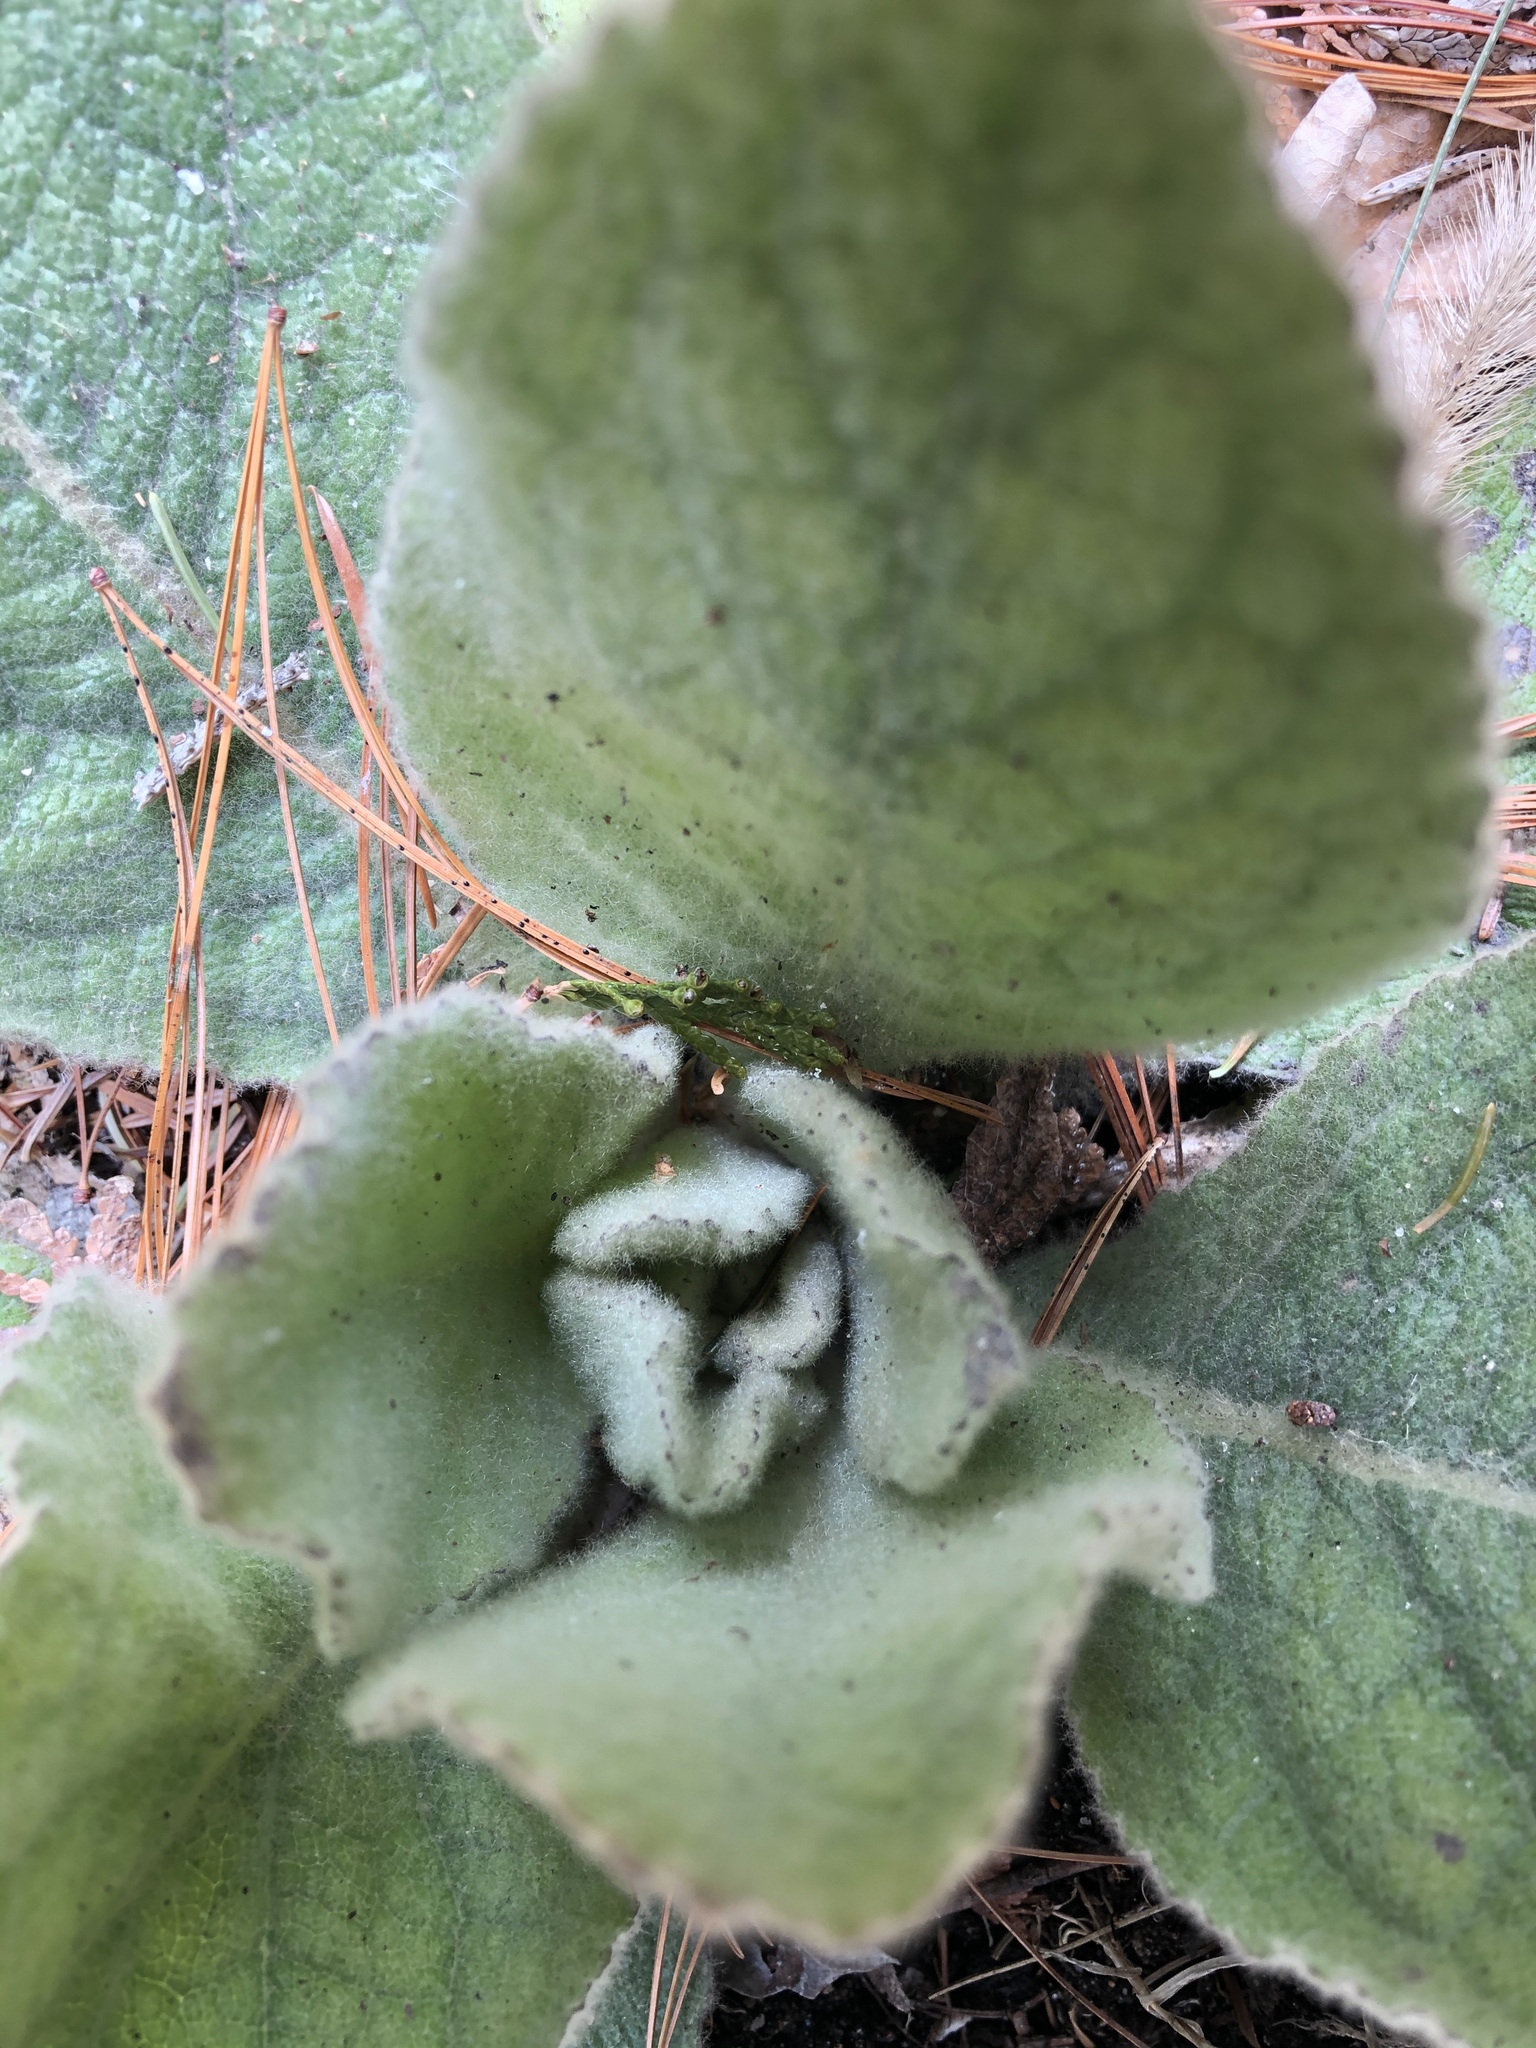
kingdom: Plantae
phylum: Tracheophyta
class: Magnoliopsida
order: Lamiales
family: Scrophulariaceae
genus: Verbascum
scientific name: Verbascum thapsus
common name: Common mullein
